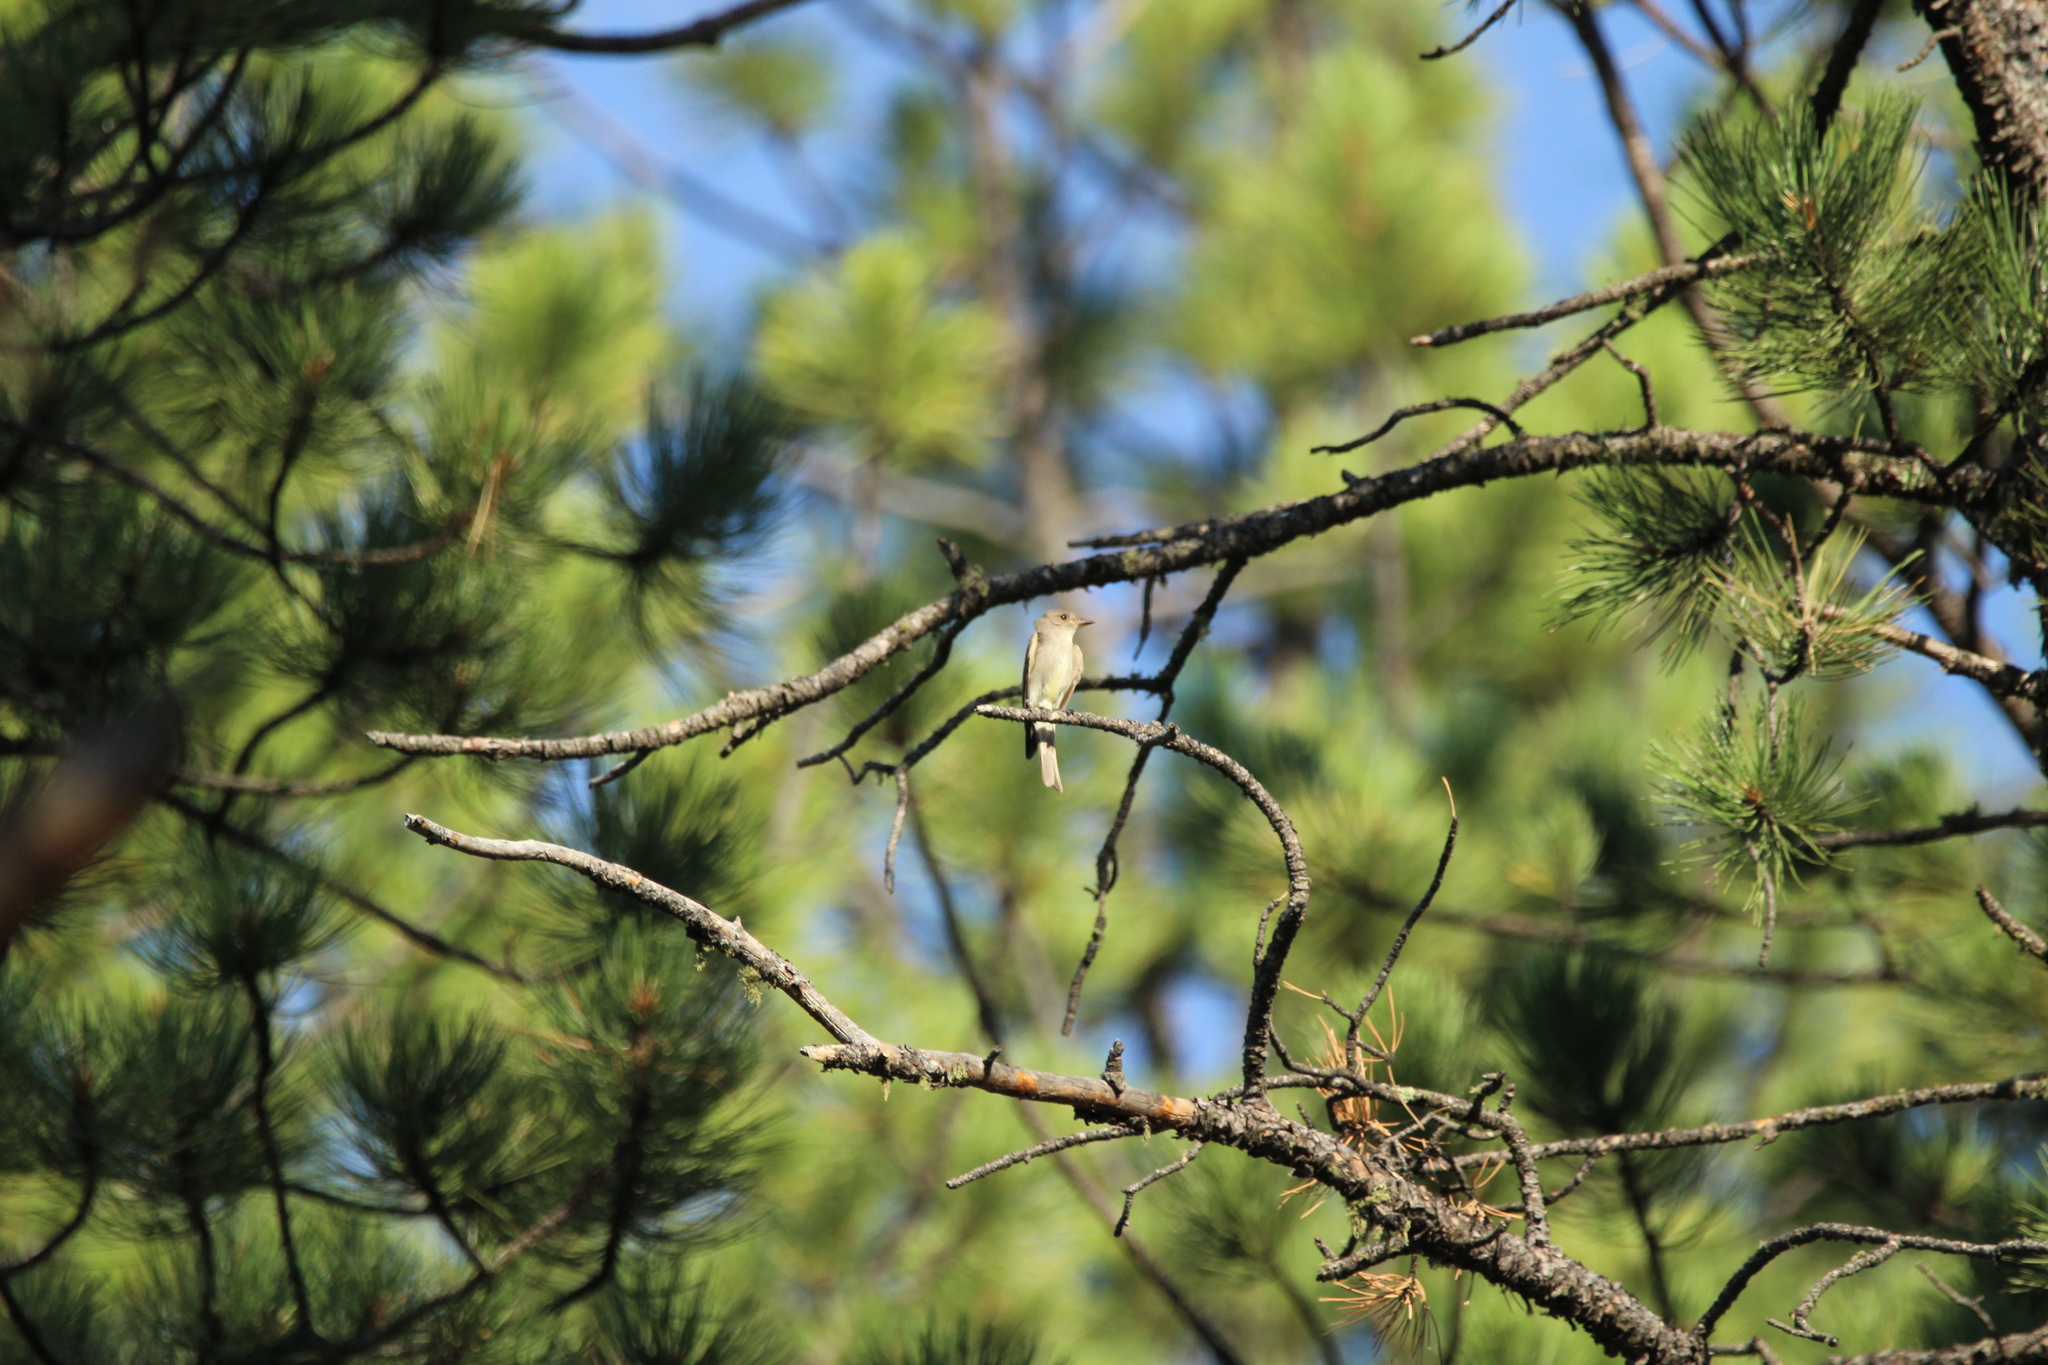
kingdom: Animalia
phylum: Chordata
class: Aves
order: Passeriformes
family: Tyrannidae
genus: Contopus
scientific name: Contopus sordidulus
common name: Western wood-pewee
